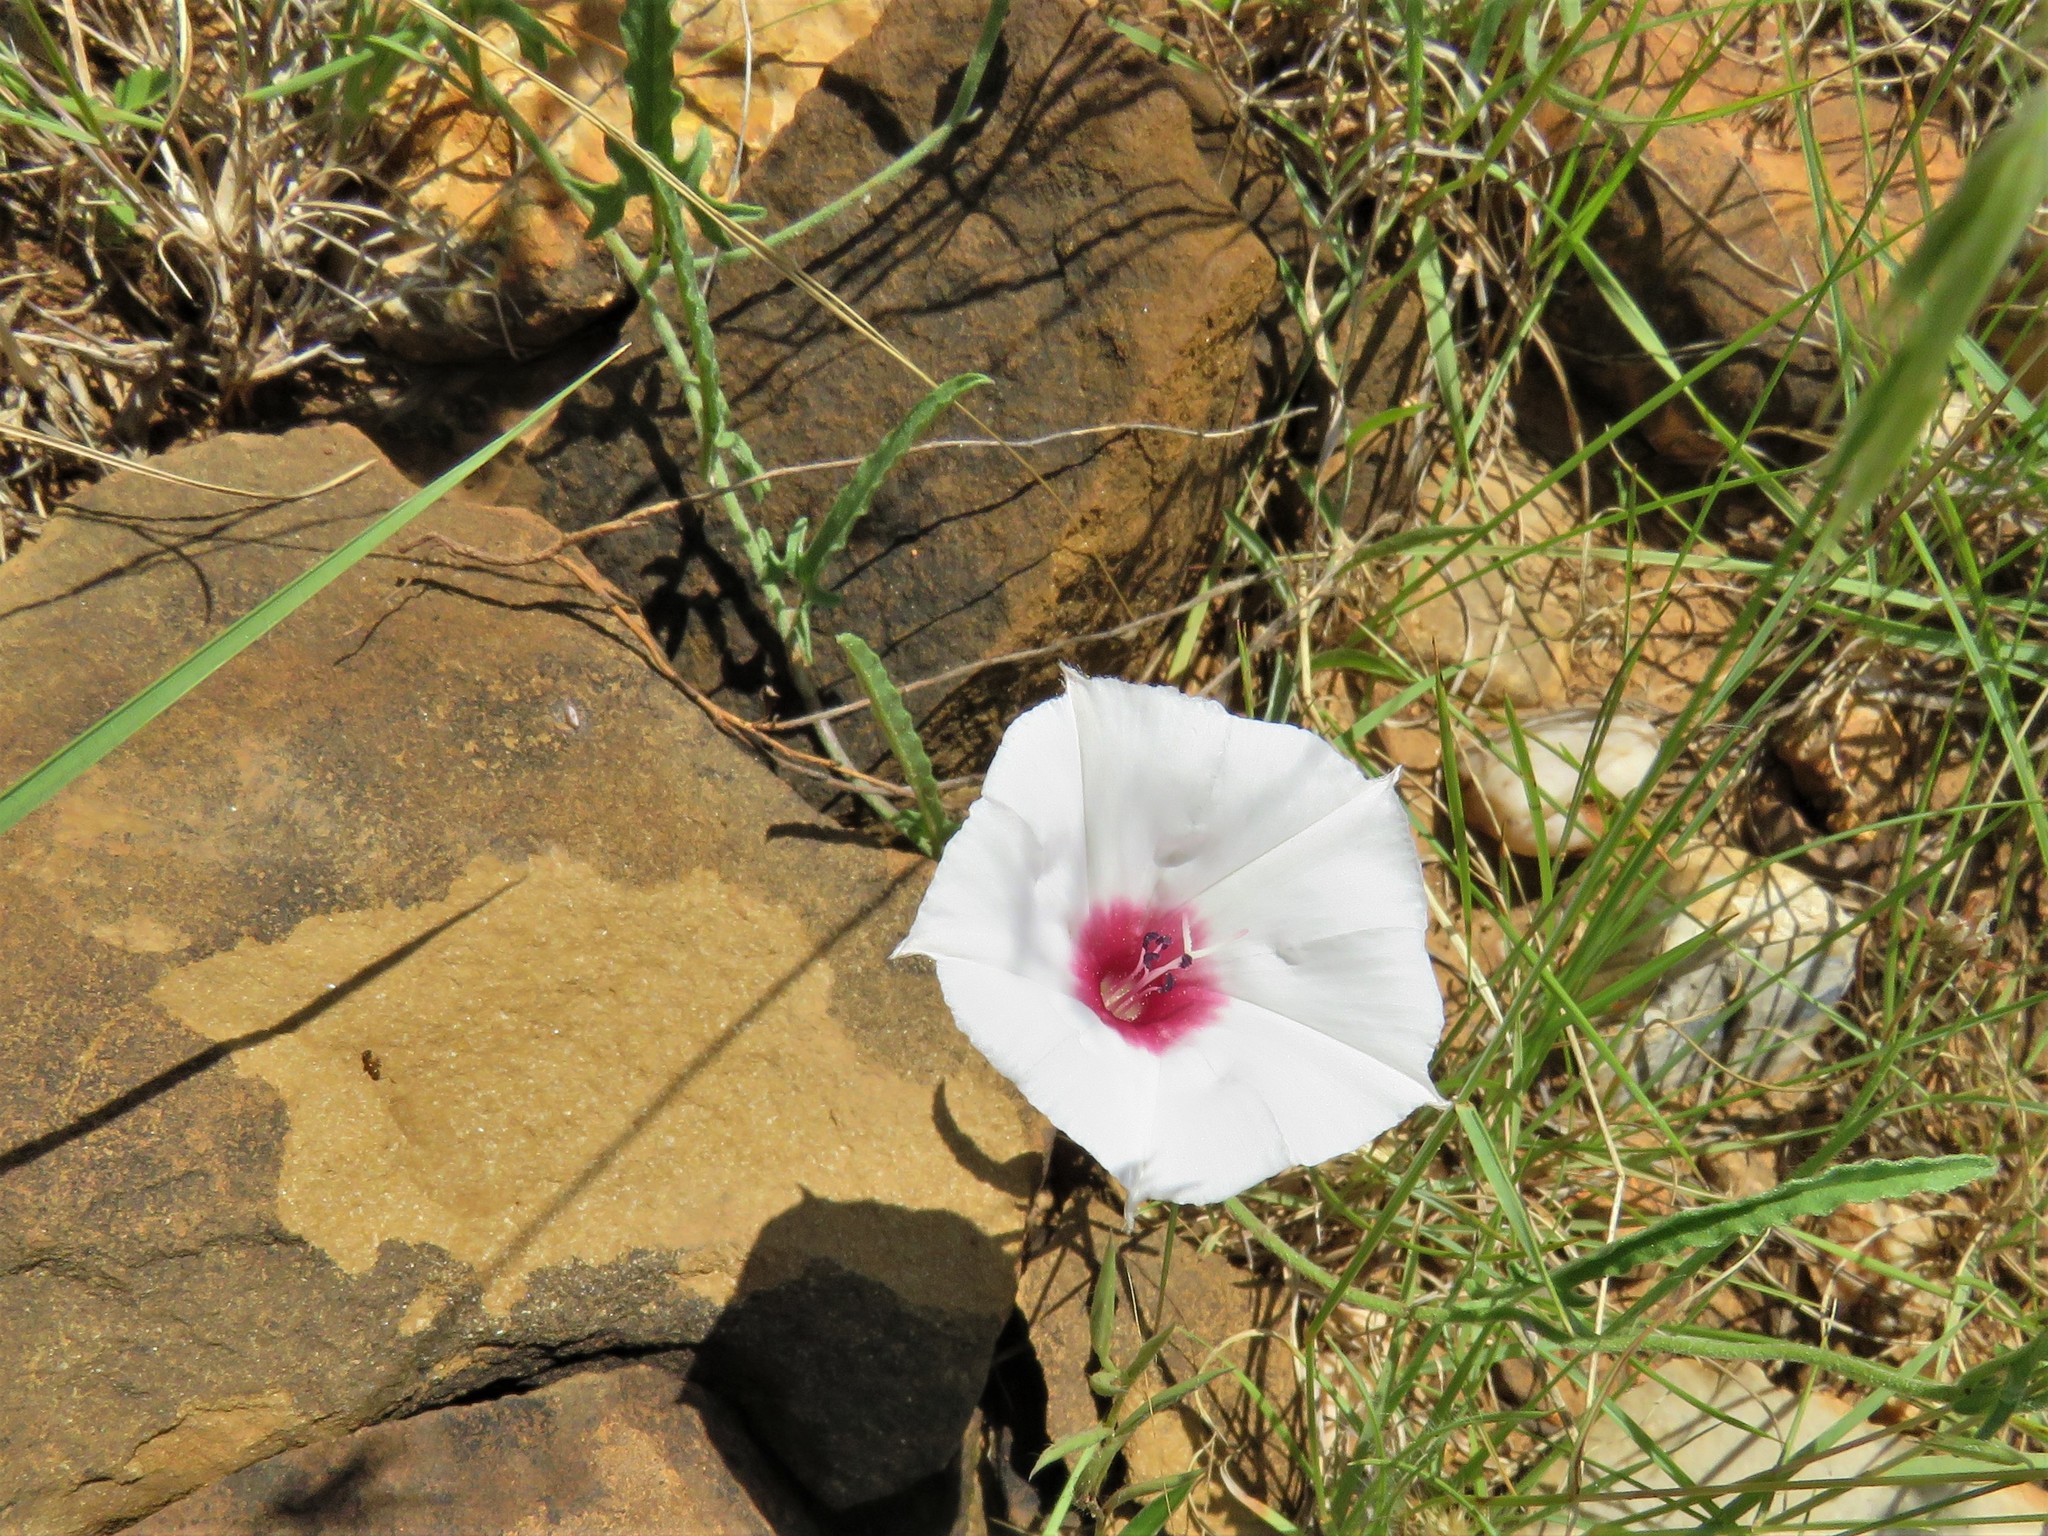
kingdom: Plantae
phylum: Tracheophyta
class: Magnoliopsida
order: Solanales
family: Convolvulaceae
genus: Convolvulus
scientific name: Convolvulus equitans
